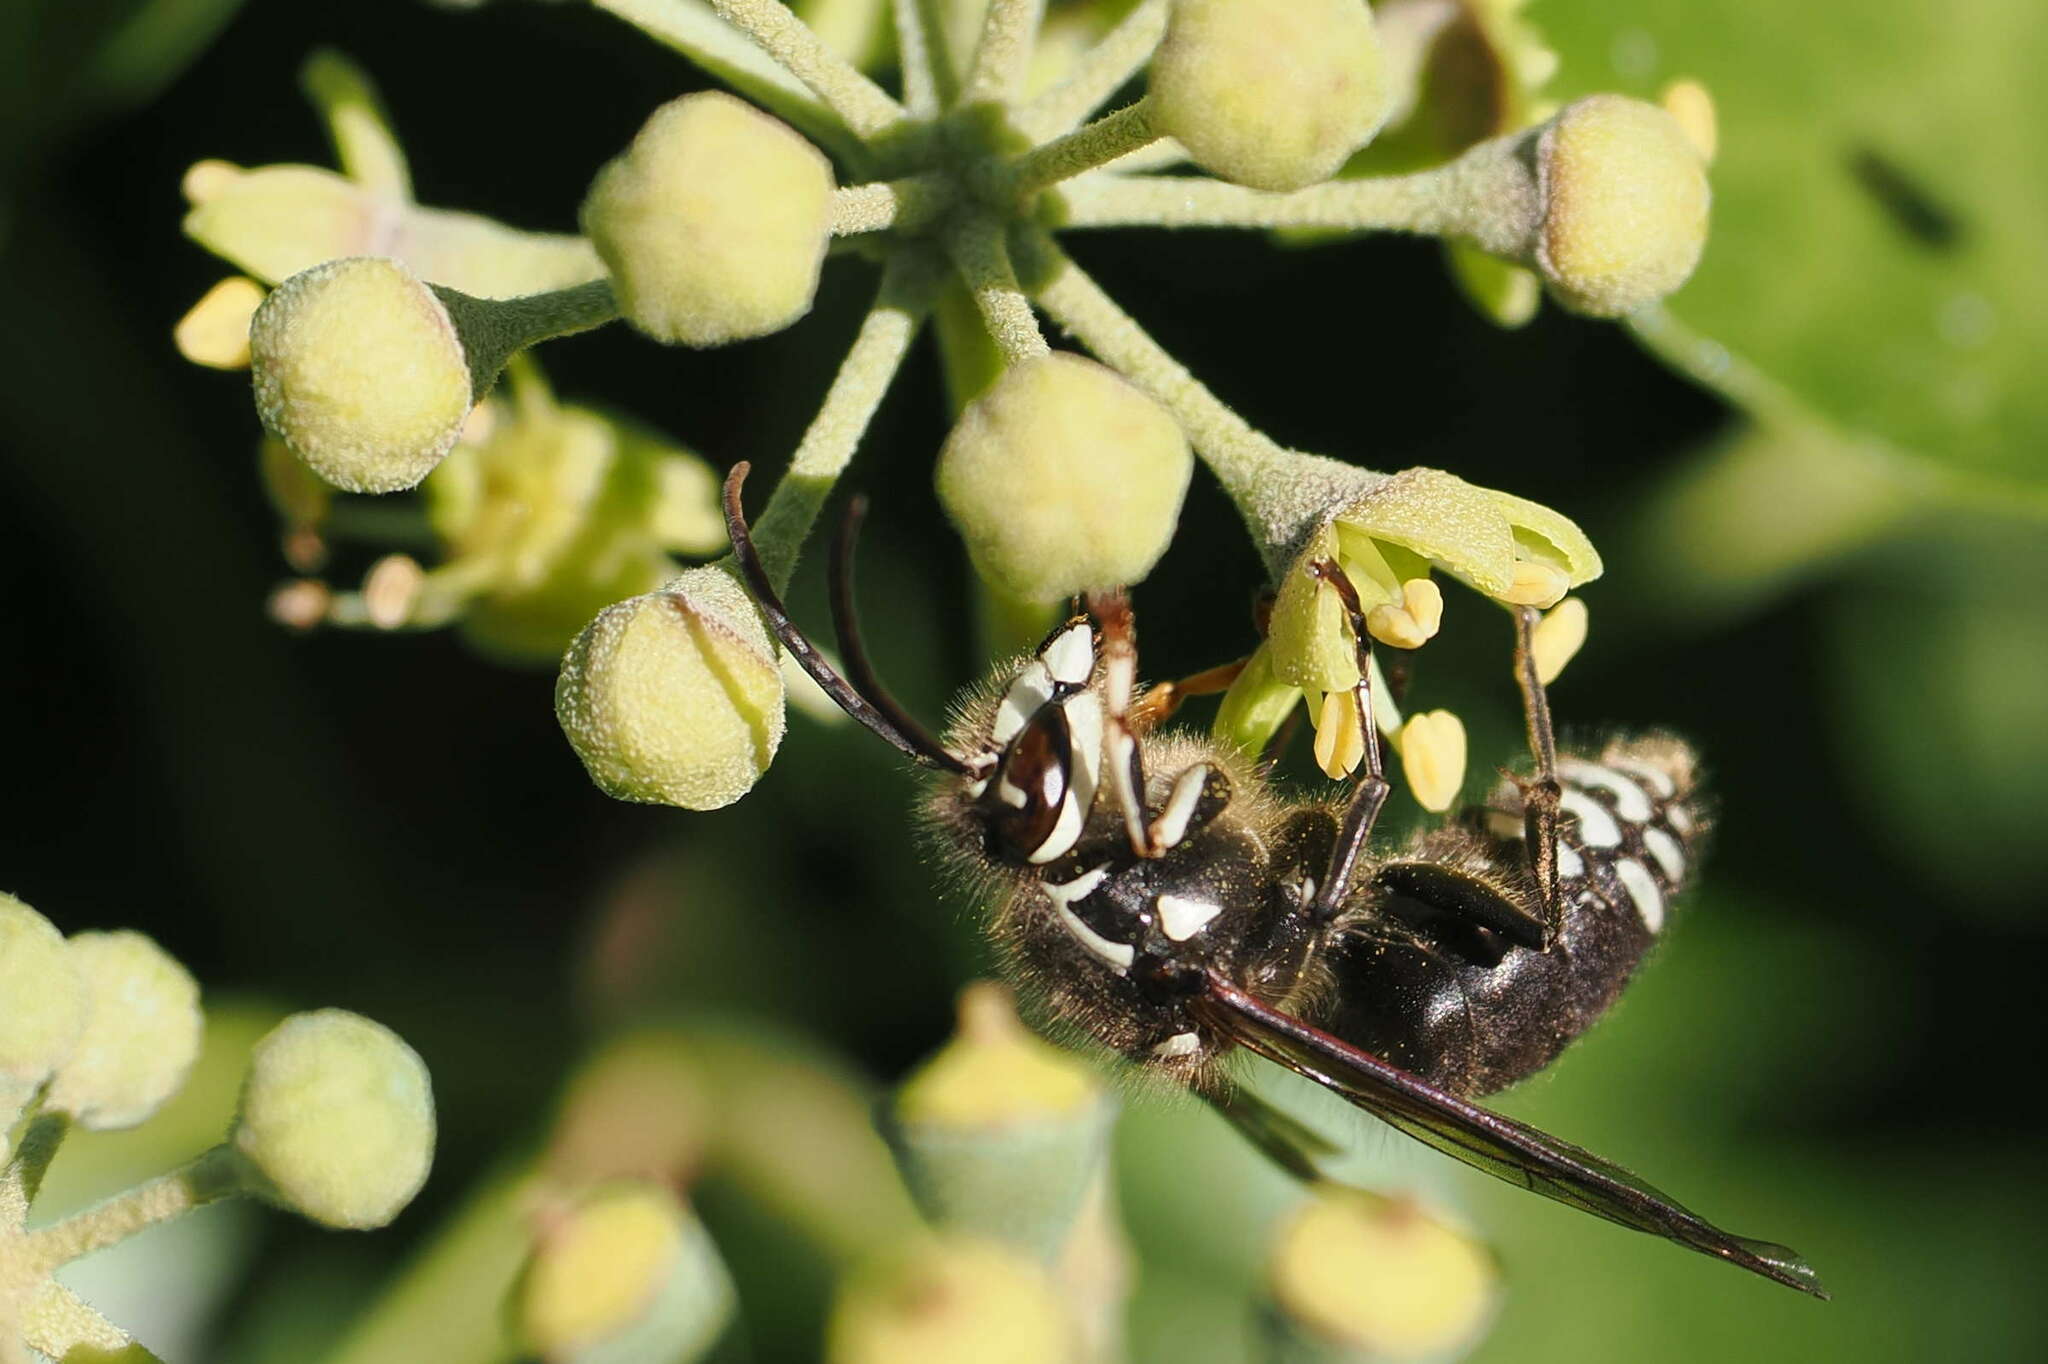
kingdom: Animalia
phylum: Arthropoda
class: Insecta
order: Hymenoptera
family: Vespidae
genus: Dolichovespula
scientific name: Dolichovespula maculata
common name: Bald-faced hornet
